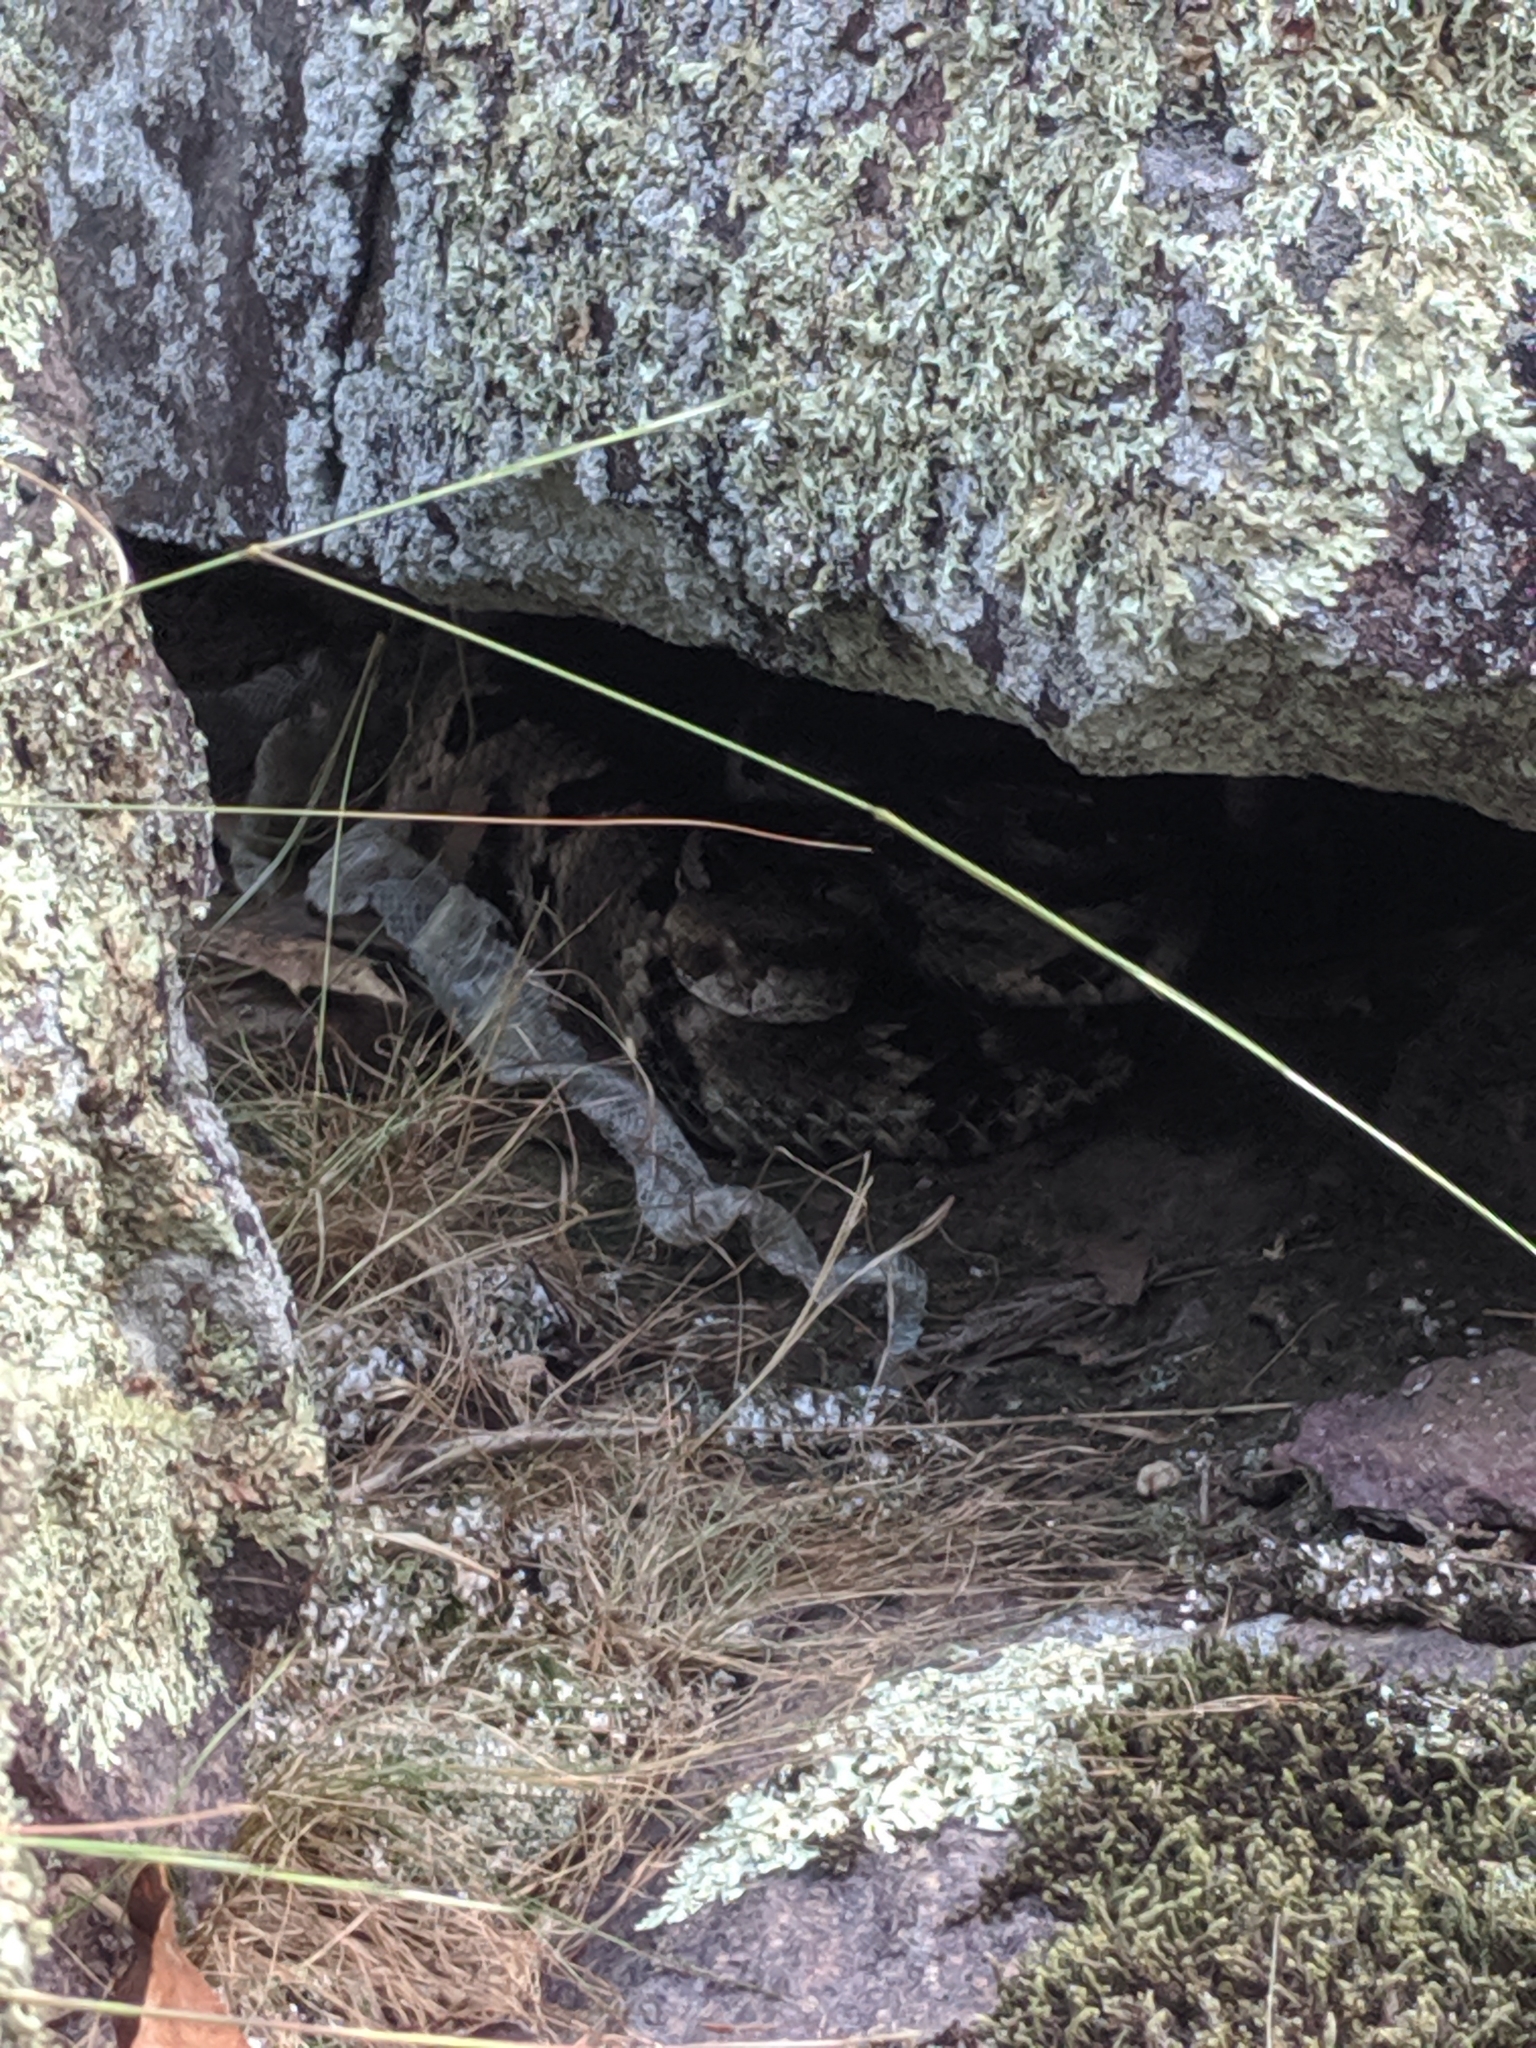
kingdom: Animalia
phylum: Chordata
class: Squamata
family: Viperidae
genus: Crotalus
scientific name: Crotalus horridus
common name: Timber rattlesnake
